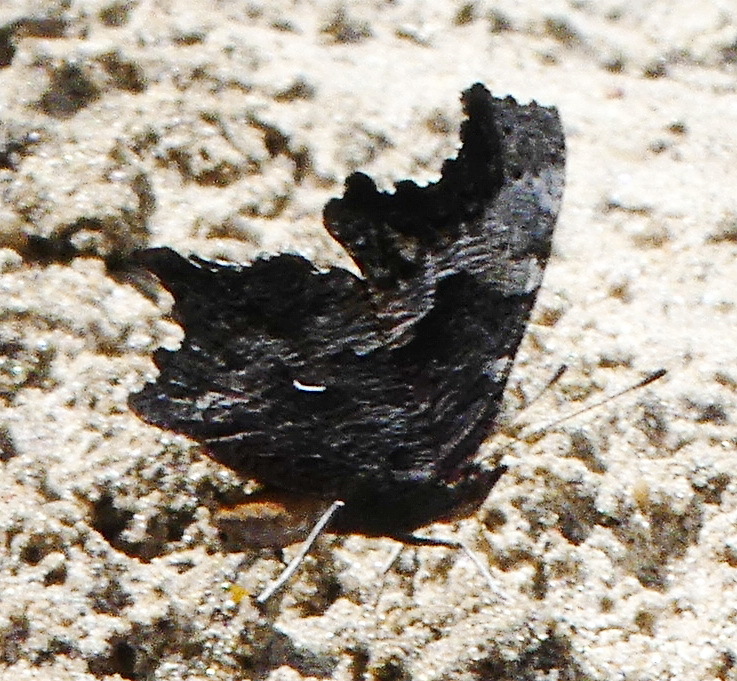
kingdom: Animalia
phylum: Arthropoda
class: Insecta
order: Lepidoptera
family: Nymphalidae
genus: Polygonia
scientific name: Polygonia progne
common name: Gray comma
